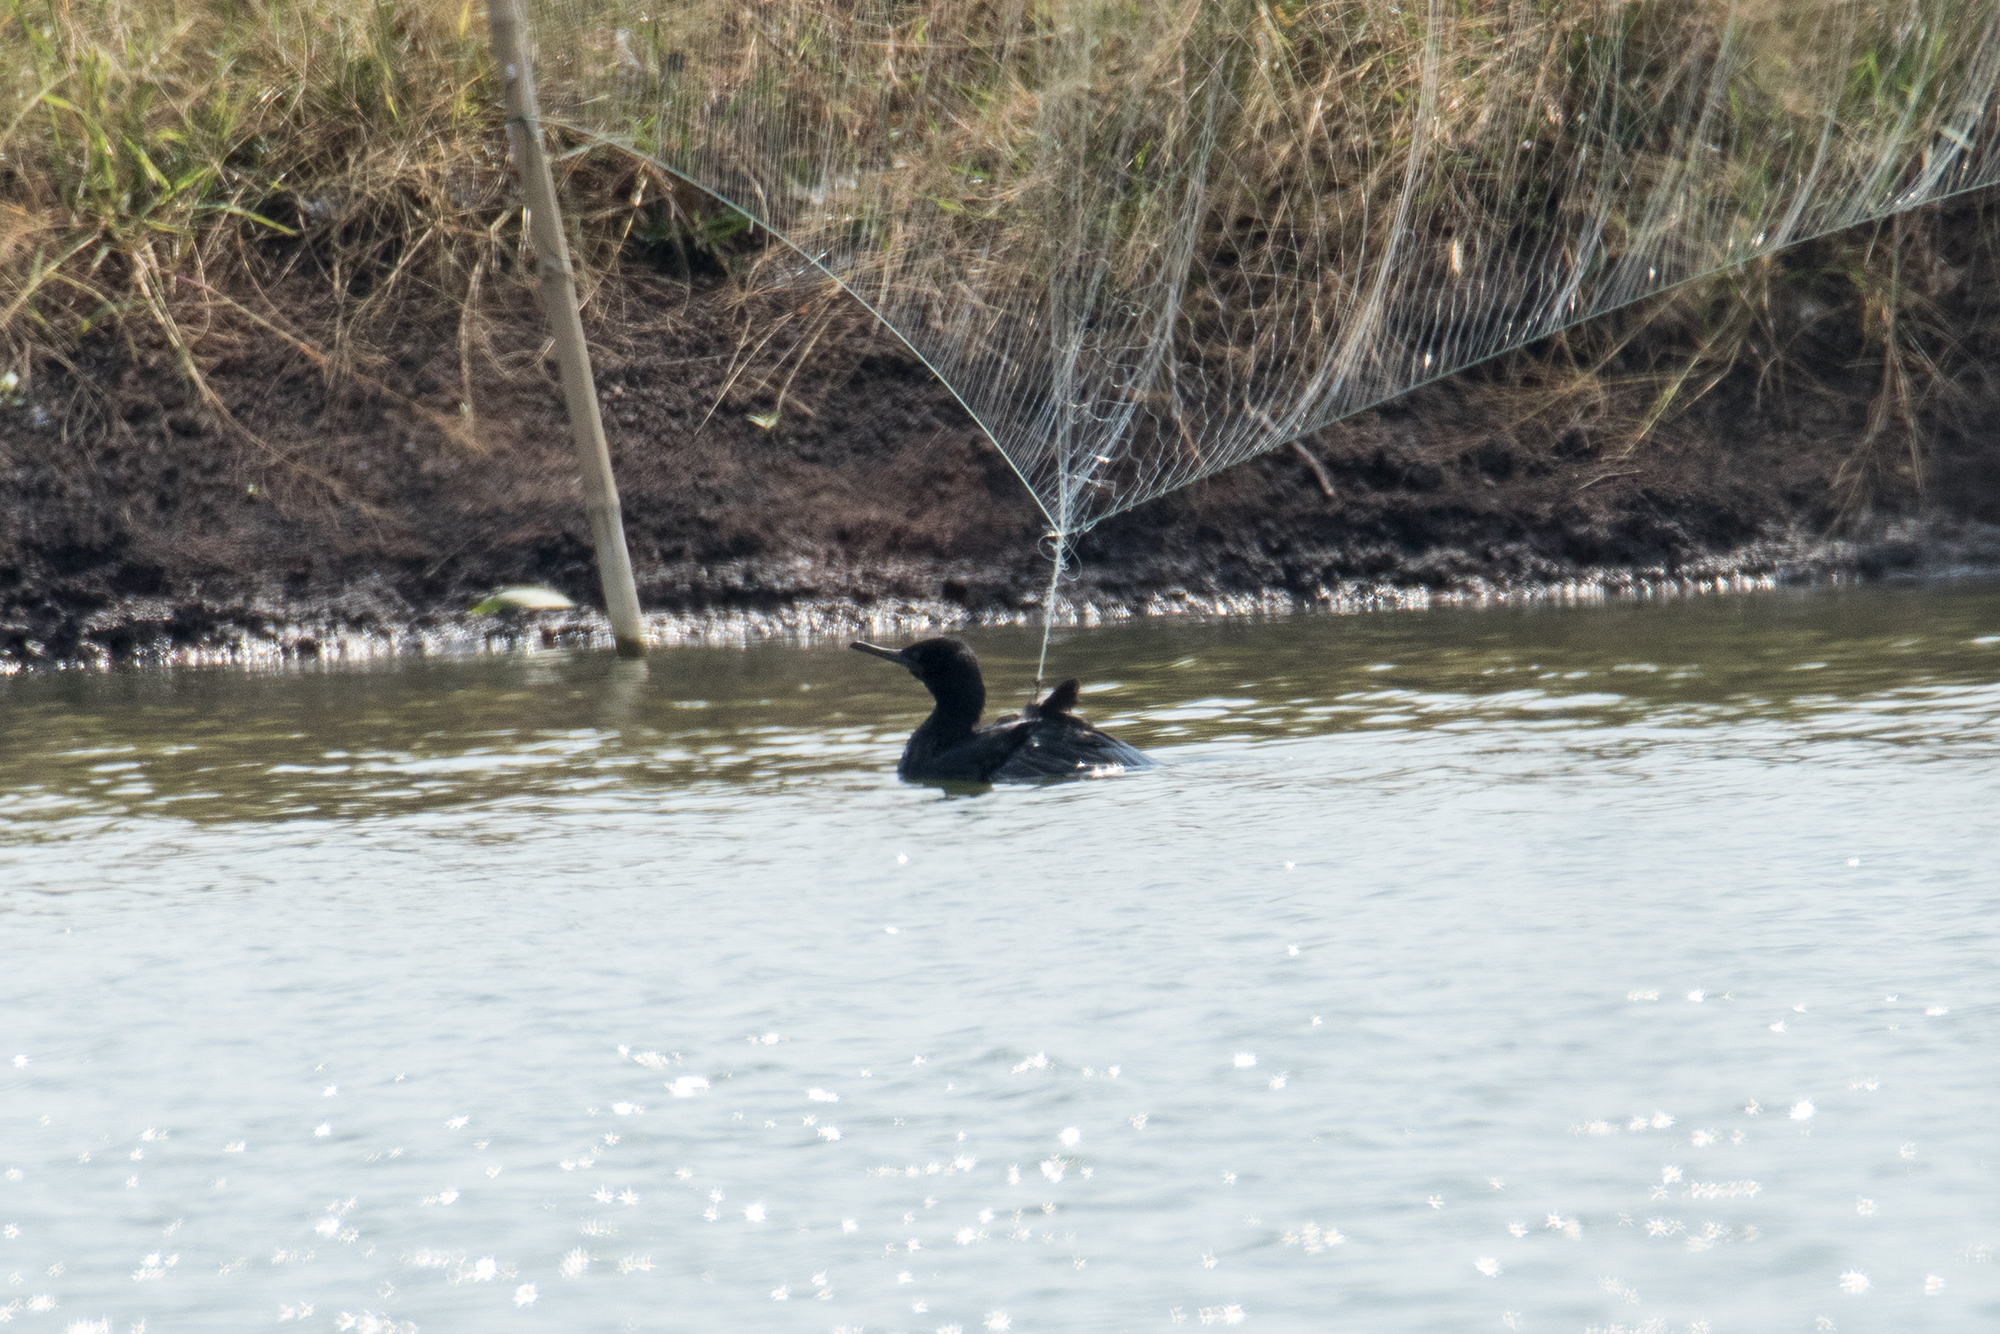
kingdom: Animalia
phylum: Chordata
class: Aves
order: Suliformes
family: Phalacrocoracidae
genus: Phalacrocorax
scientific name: Phalacrocorax fuscicollis
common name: Indian cormorant
